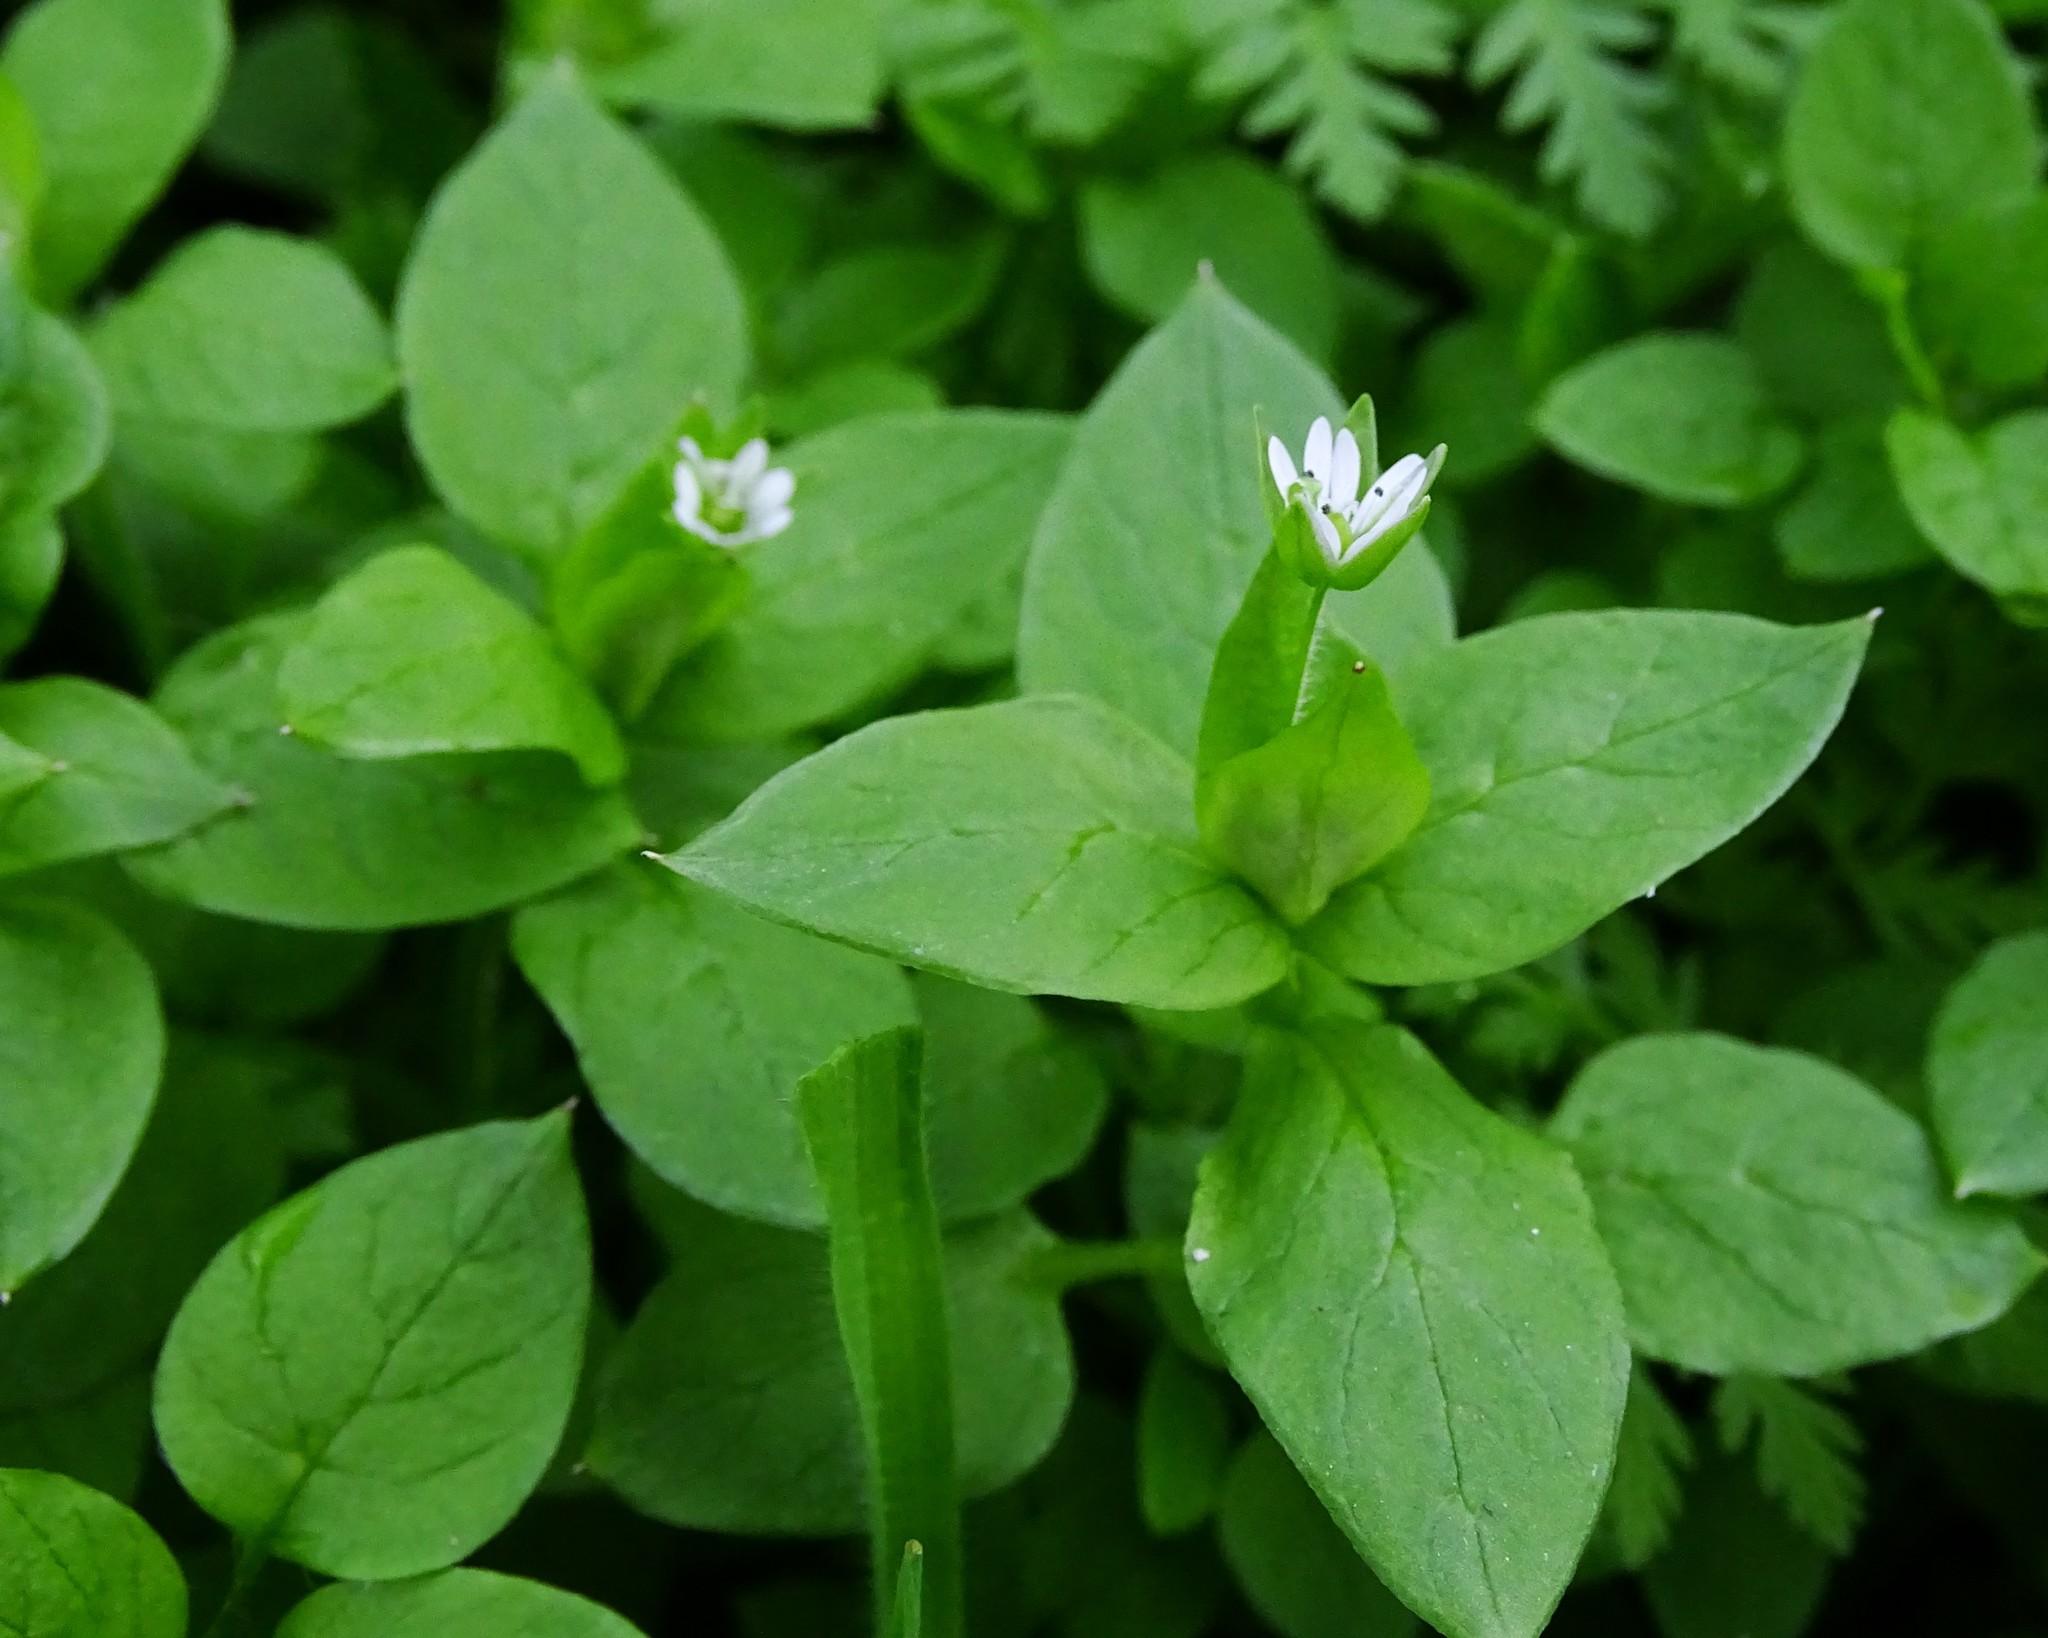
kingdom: Plantae
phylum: Tracheophyta
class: Magnoliopsida
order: Caryophyllales
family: Caryophyllaceae
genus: Stellaria
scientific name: Stellaria media
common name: Common chickweed
